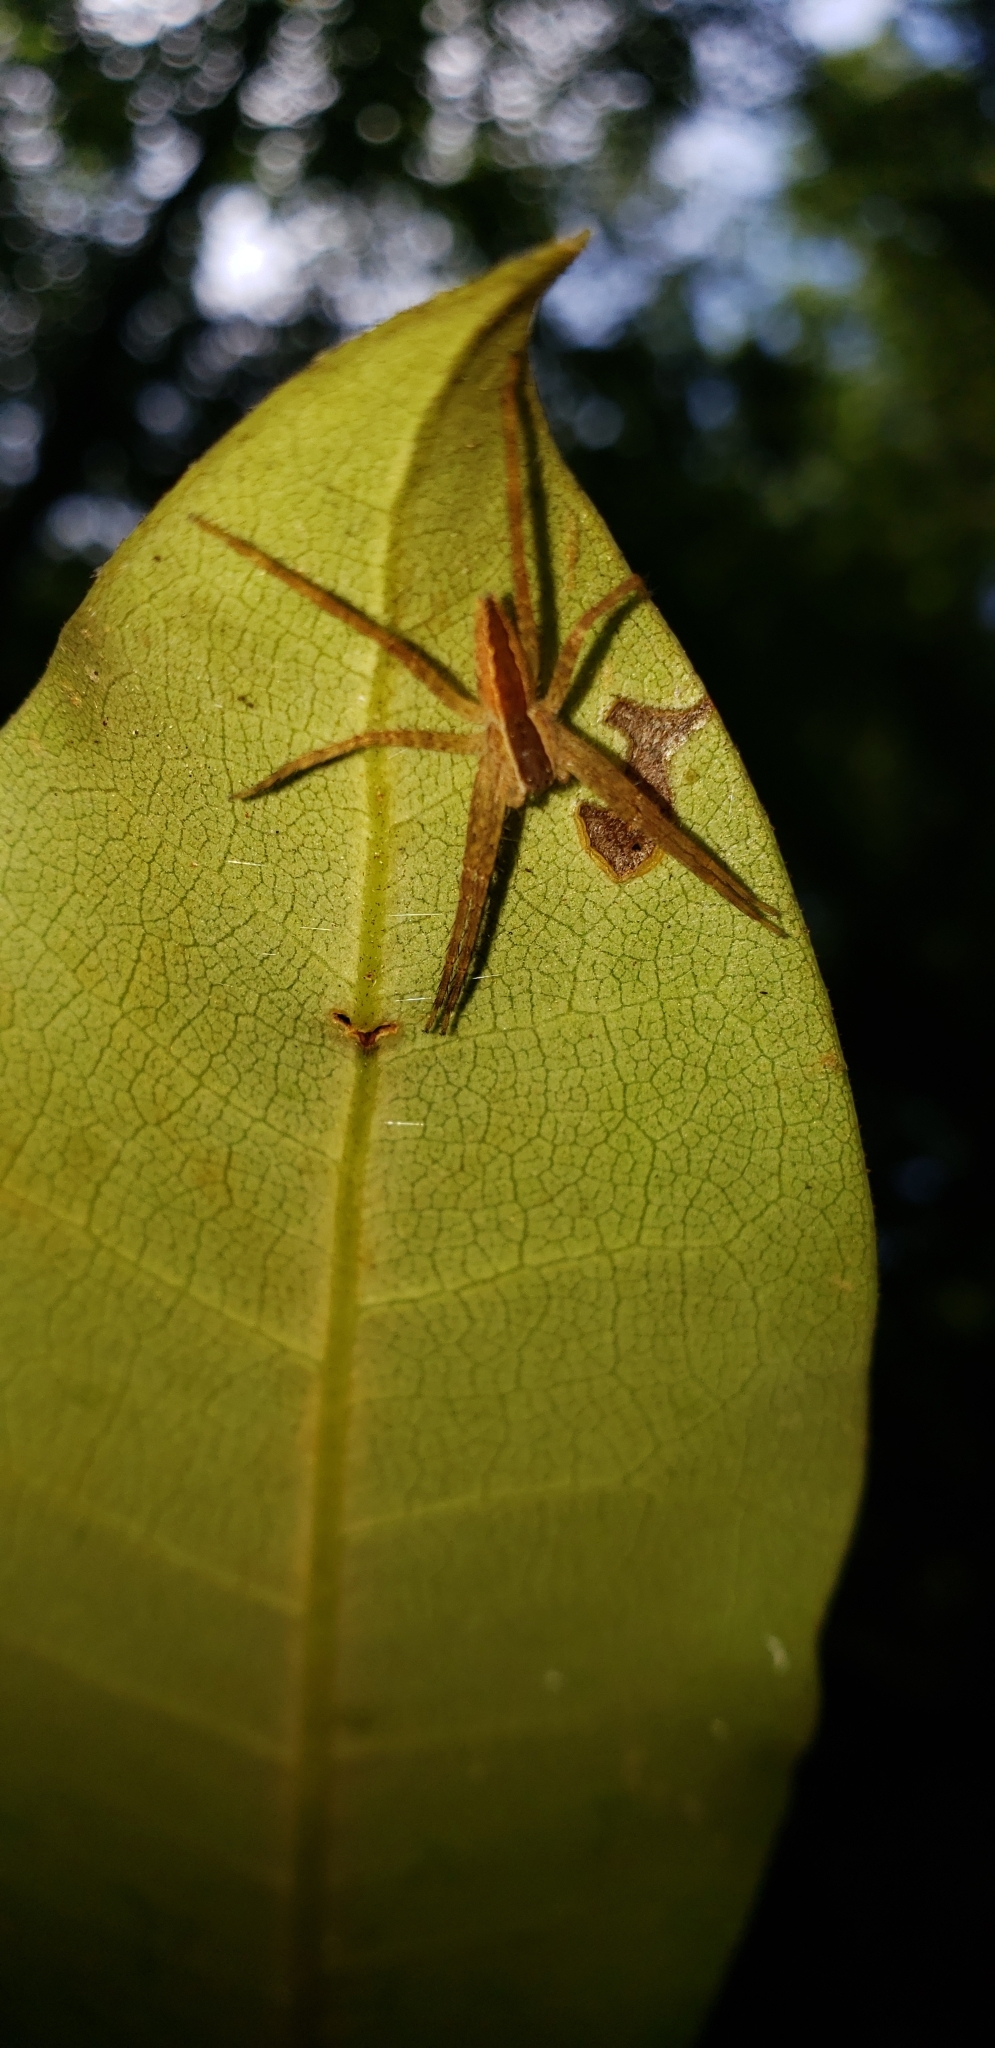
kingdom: Animalia
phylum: Arthropoda
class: Arachnida
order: Araneae
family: Pisauridae
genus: Pisaurina
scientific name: Pisaurina mira
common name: American nursery web spider
